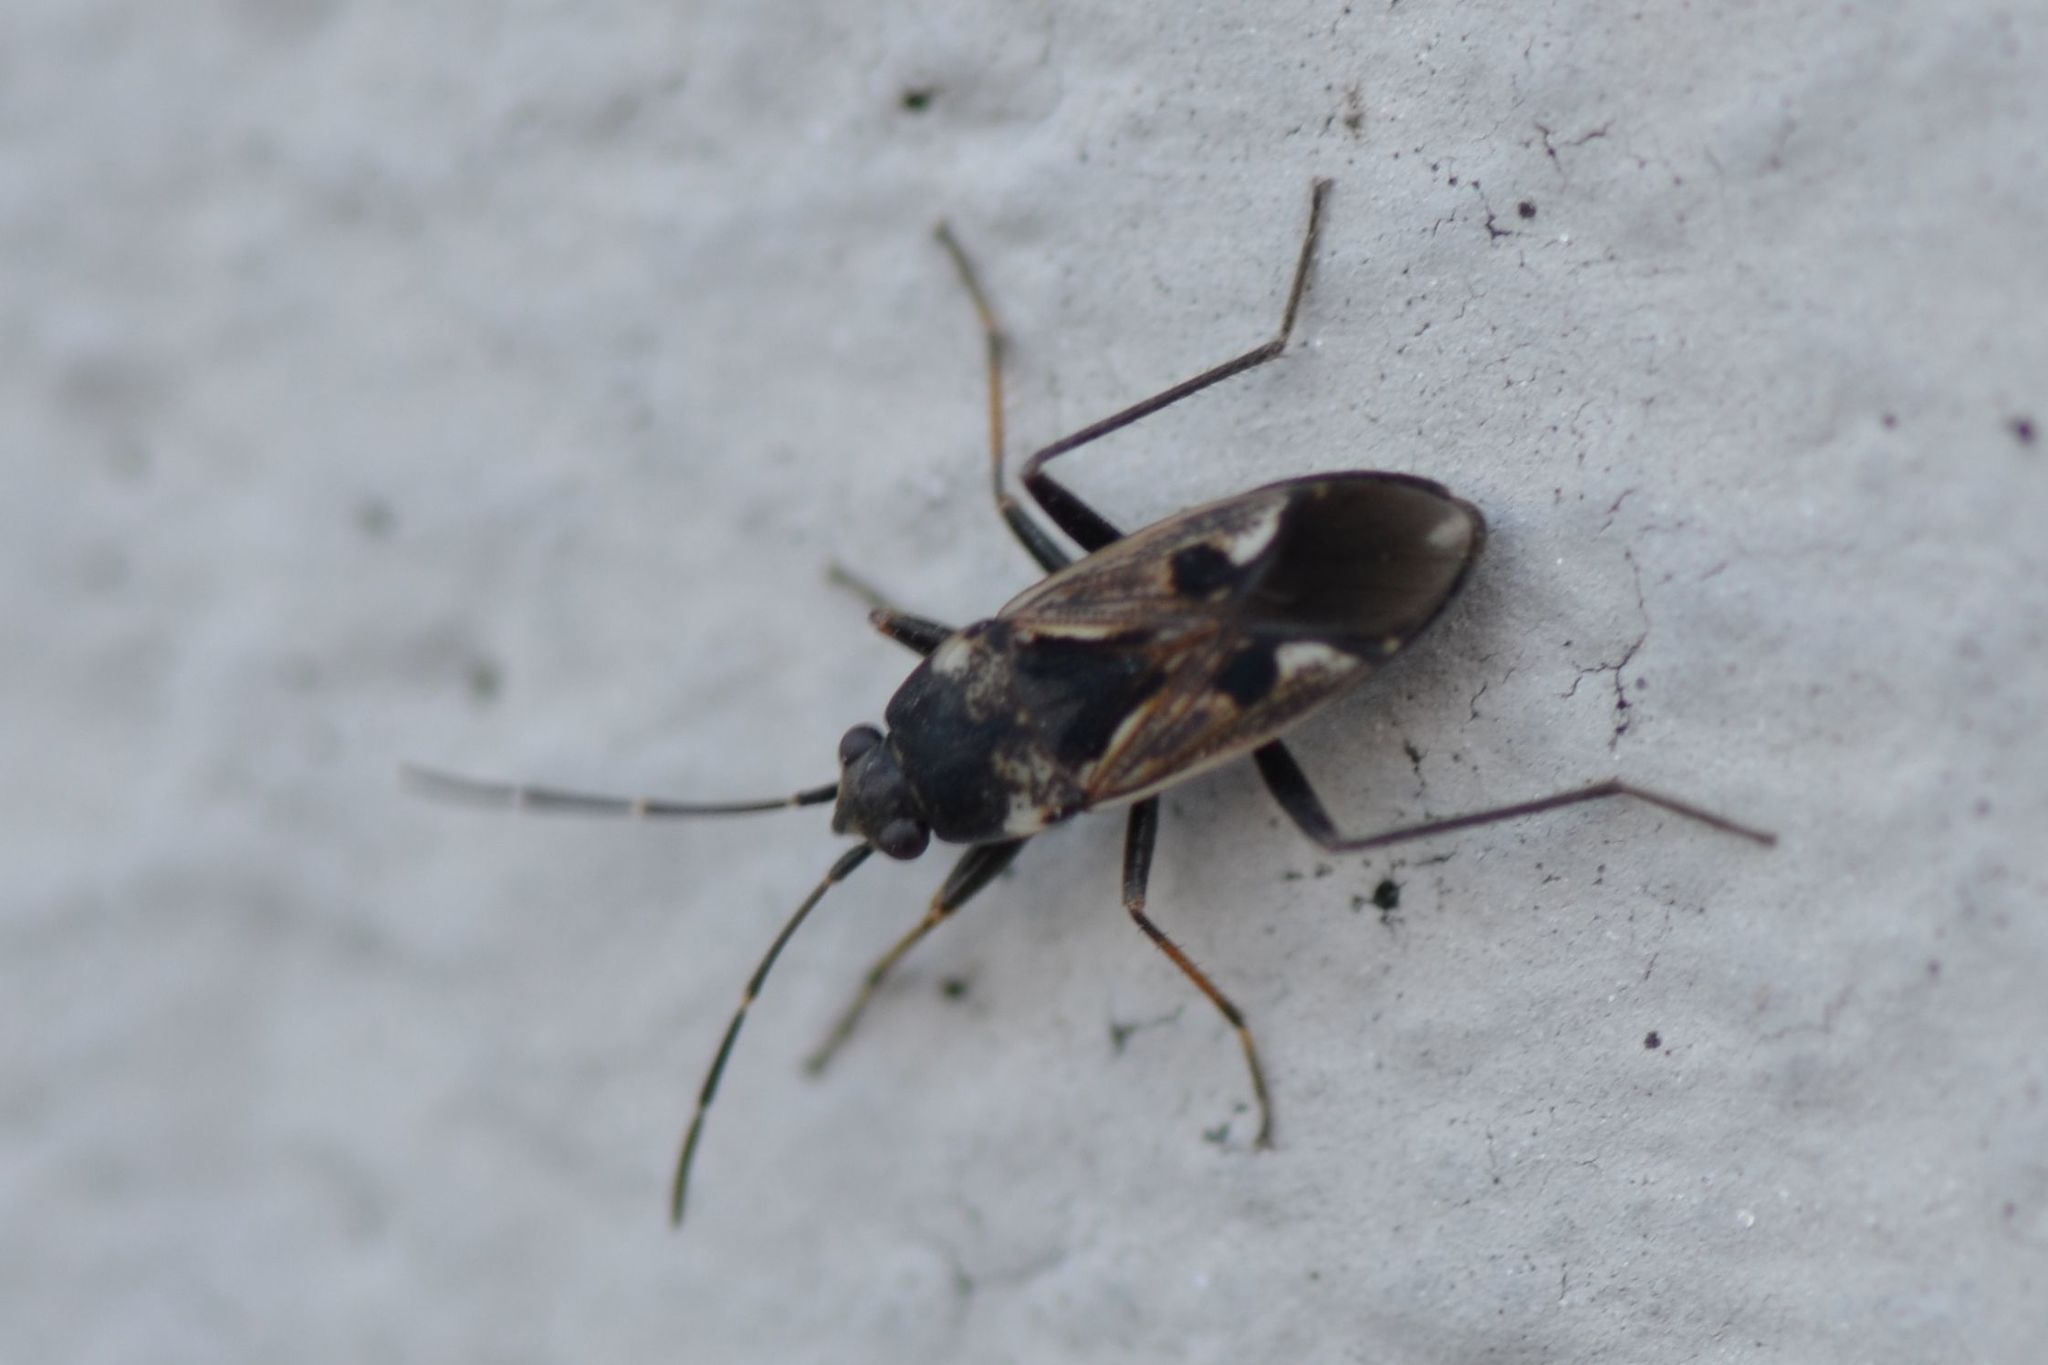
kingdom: Animalia
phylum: Arthropoda
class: Insecta
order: Hemiptera
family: Rhyparochromidae
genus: Rhyparochromus
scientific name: Rhyparochromus vulgaris
